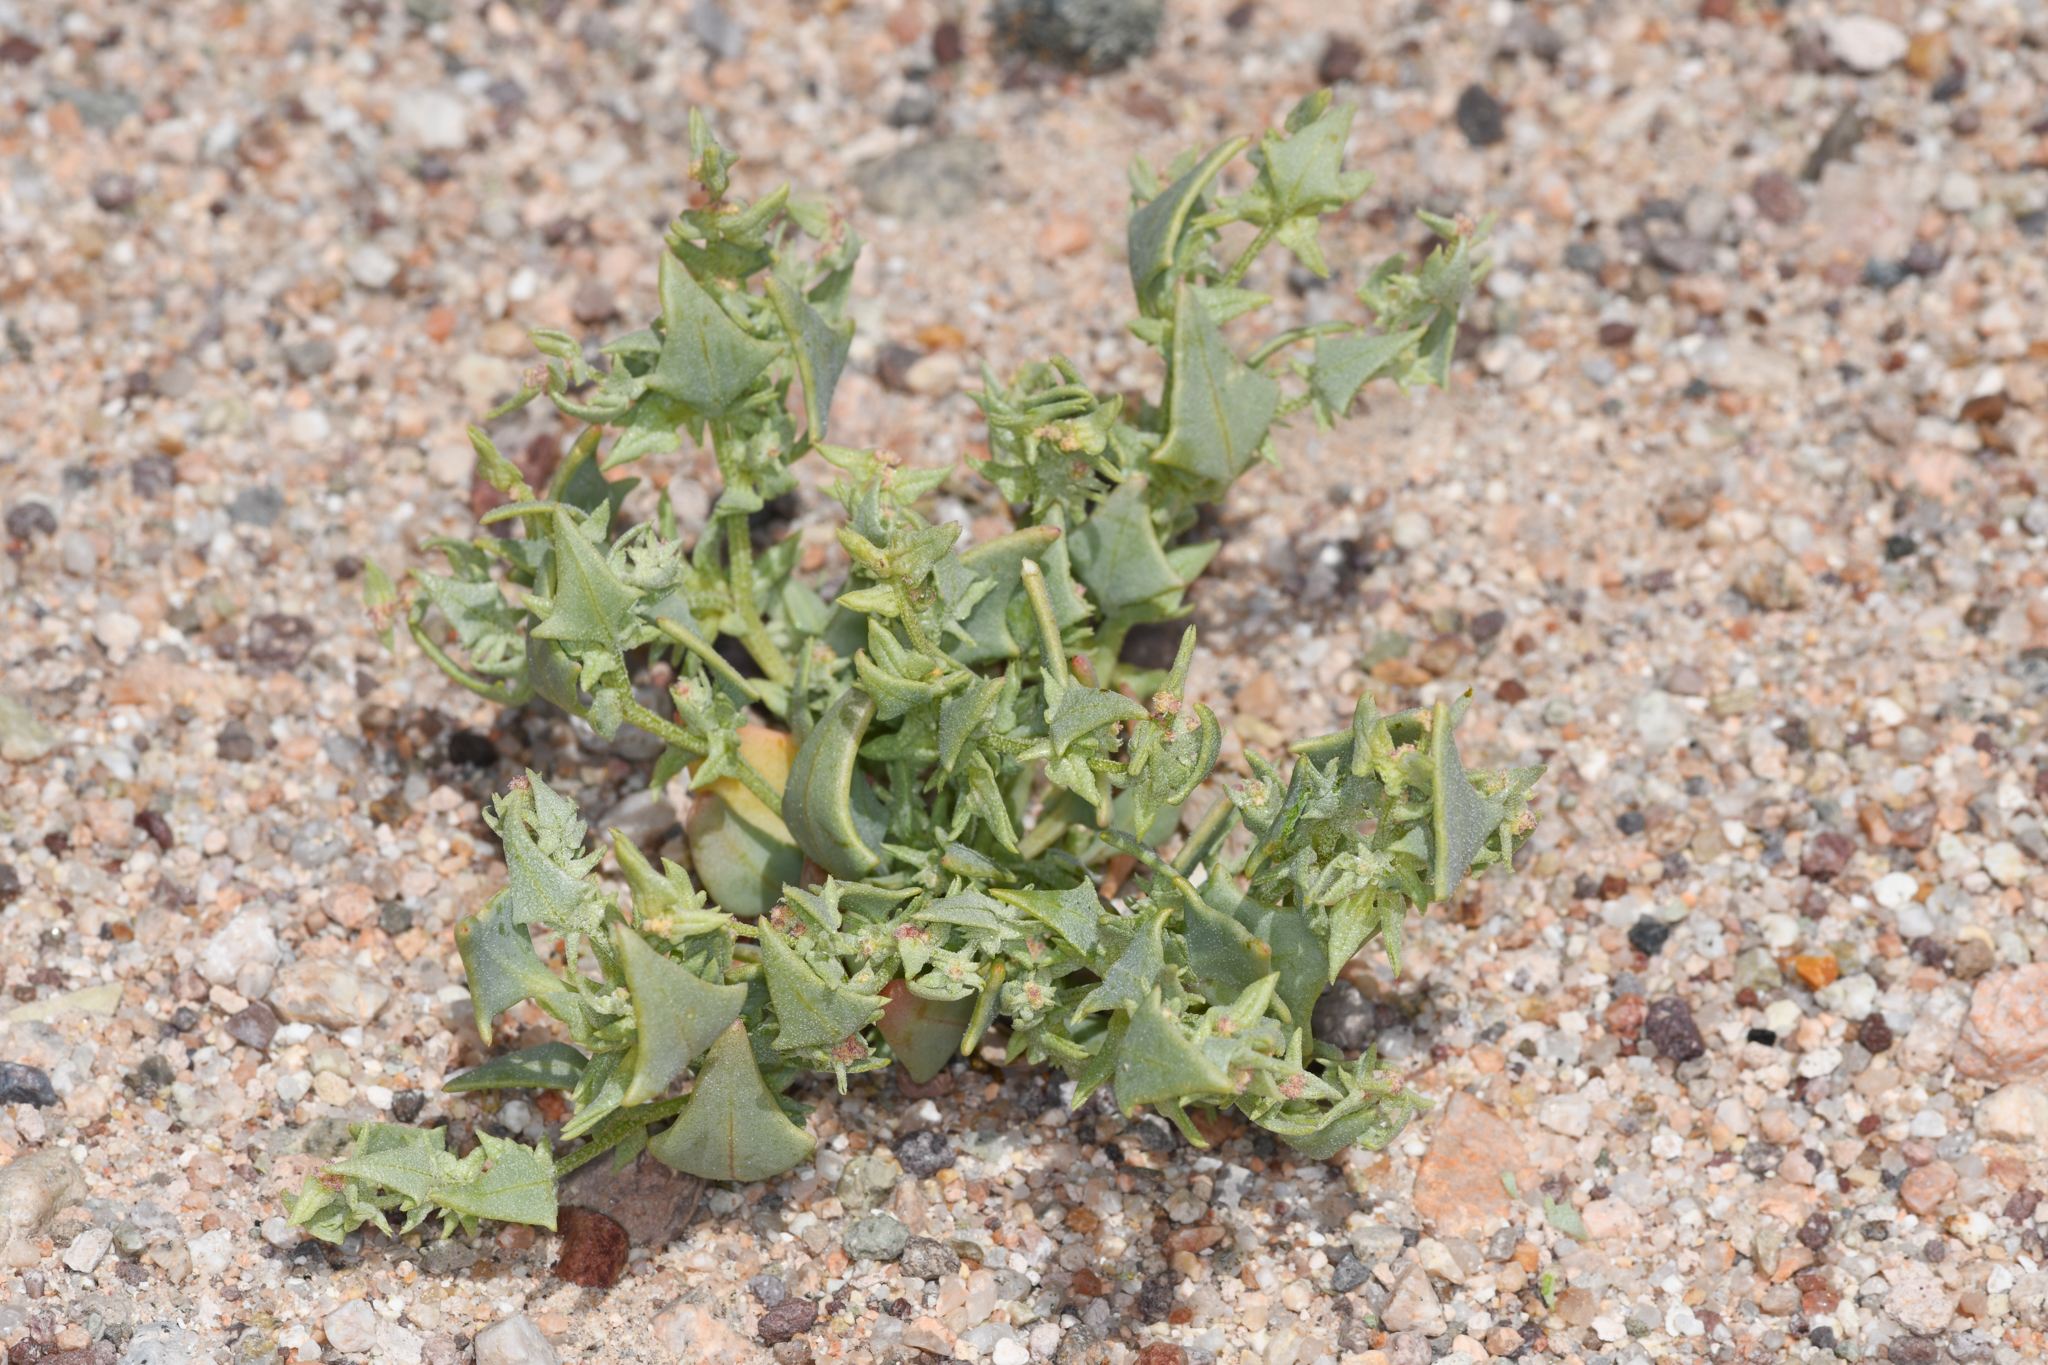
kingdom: Plantae
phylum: Tracheophyta
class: Magnoliopsida
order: Caryophyllales
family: Amaranthaceae
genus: Stutzia
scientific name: Stutzia covillei
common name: Coville's orach
